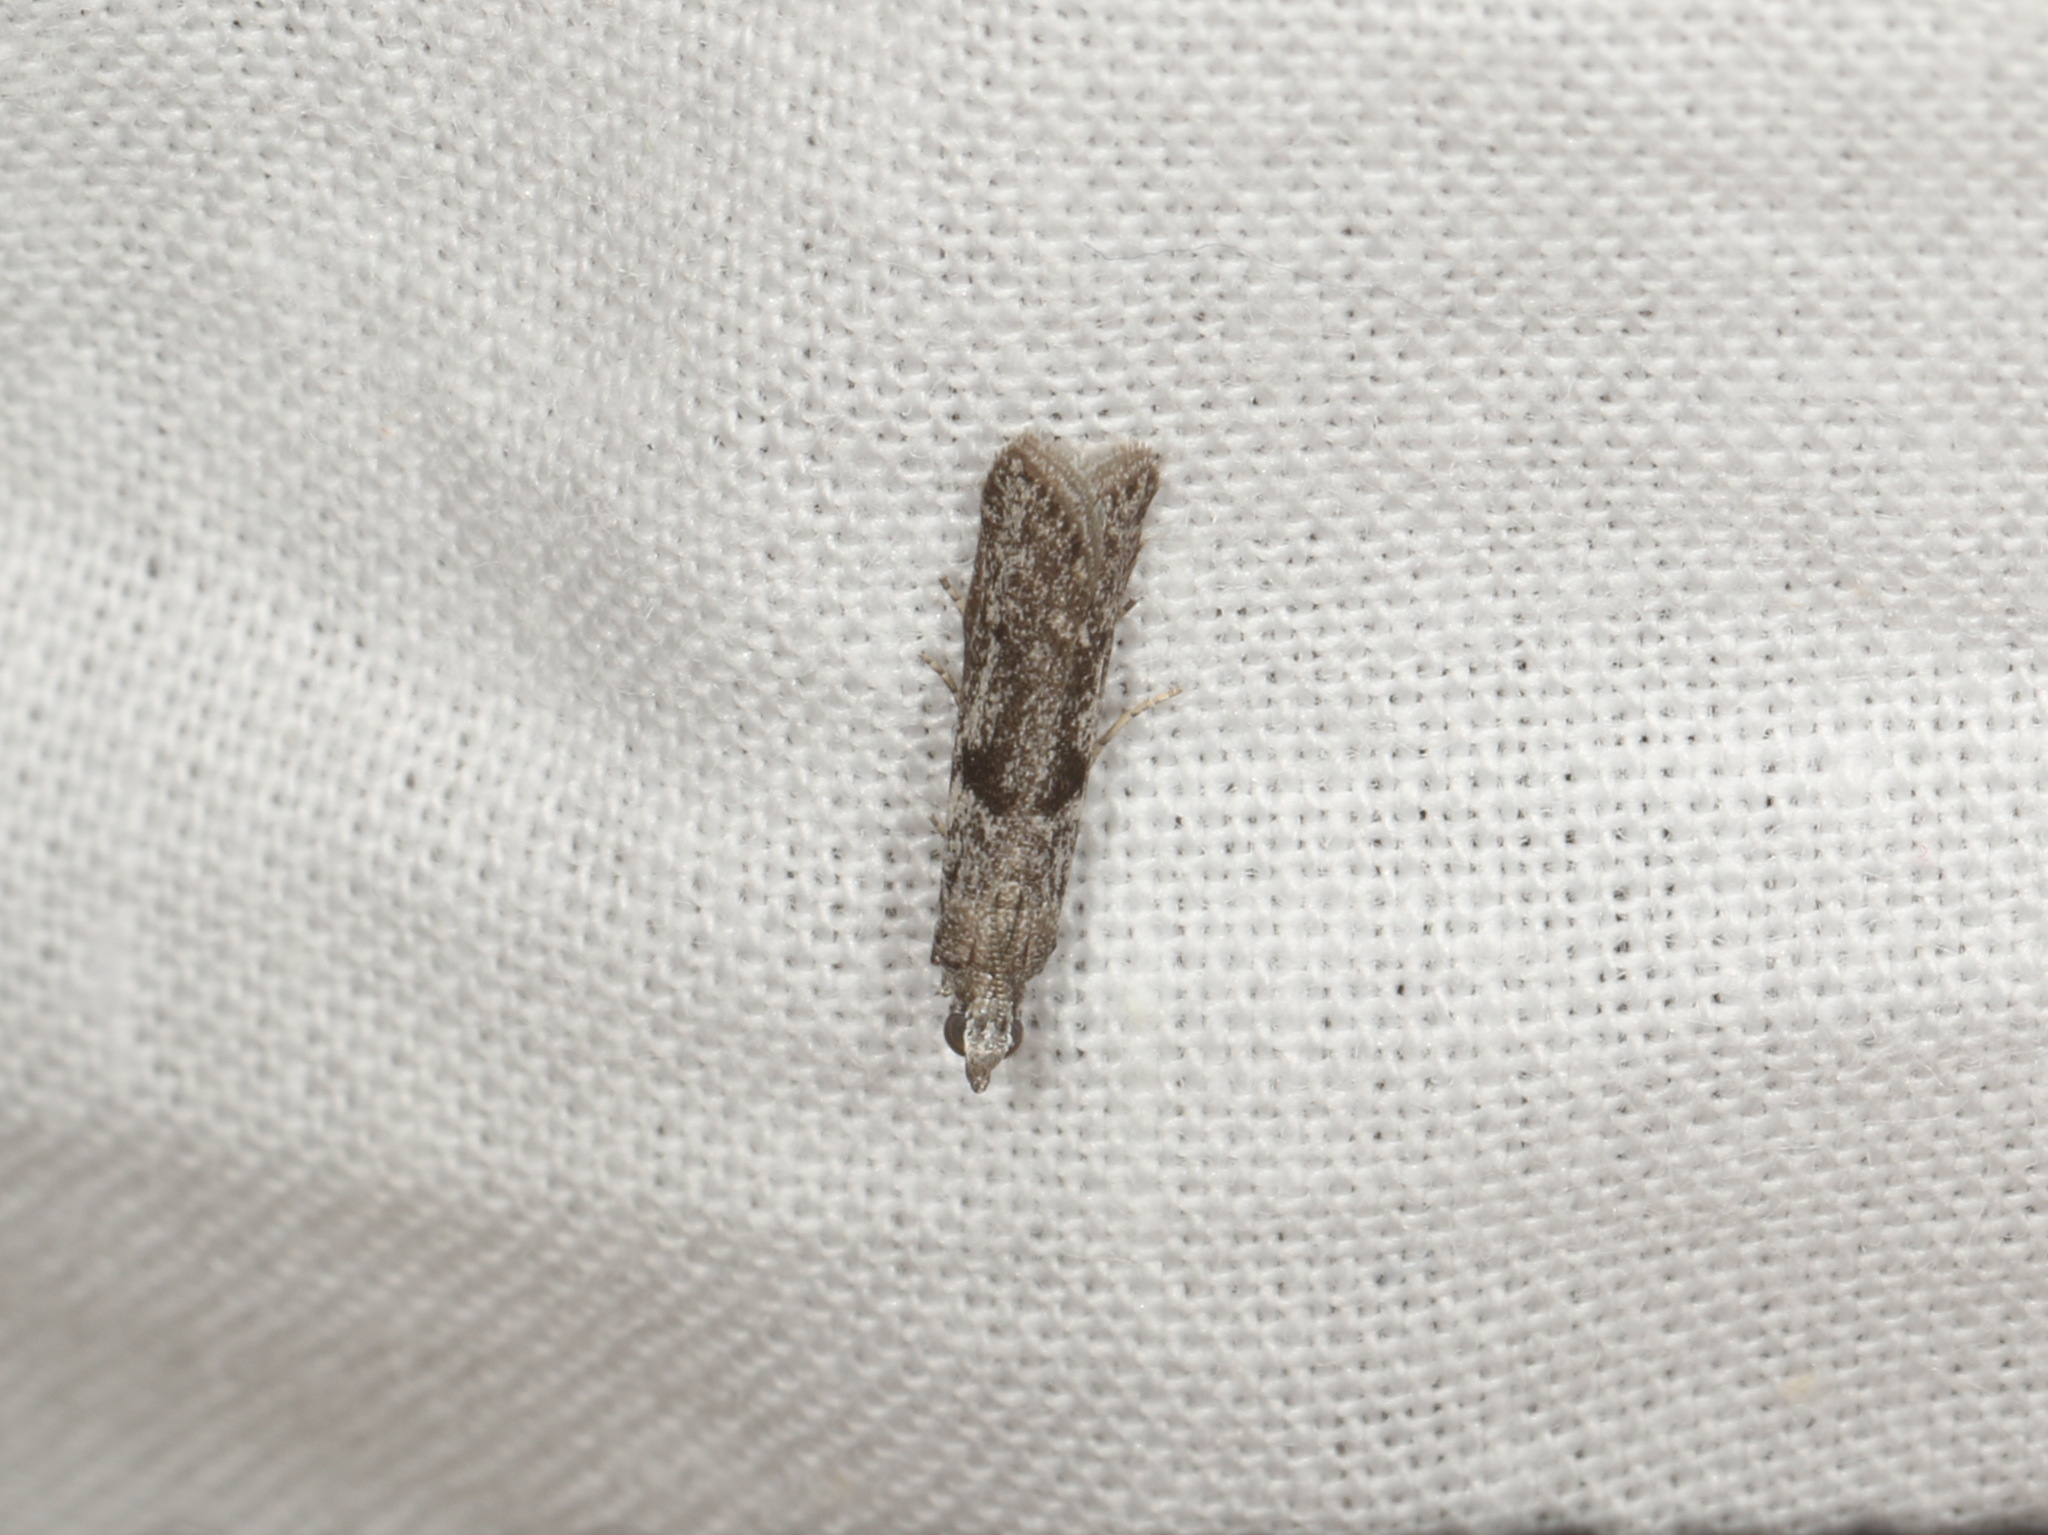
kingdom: Animalia
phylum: Arthropoda
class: Insecta
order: Lepidoptera
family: Pyralidae
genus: Sciota
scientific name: Sciota
